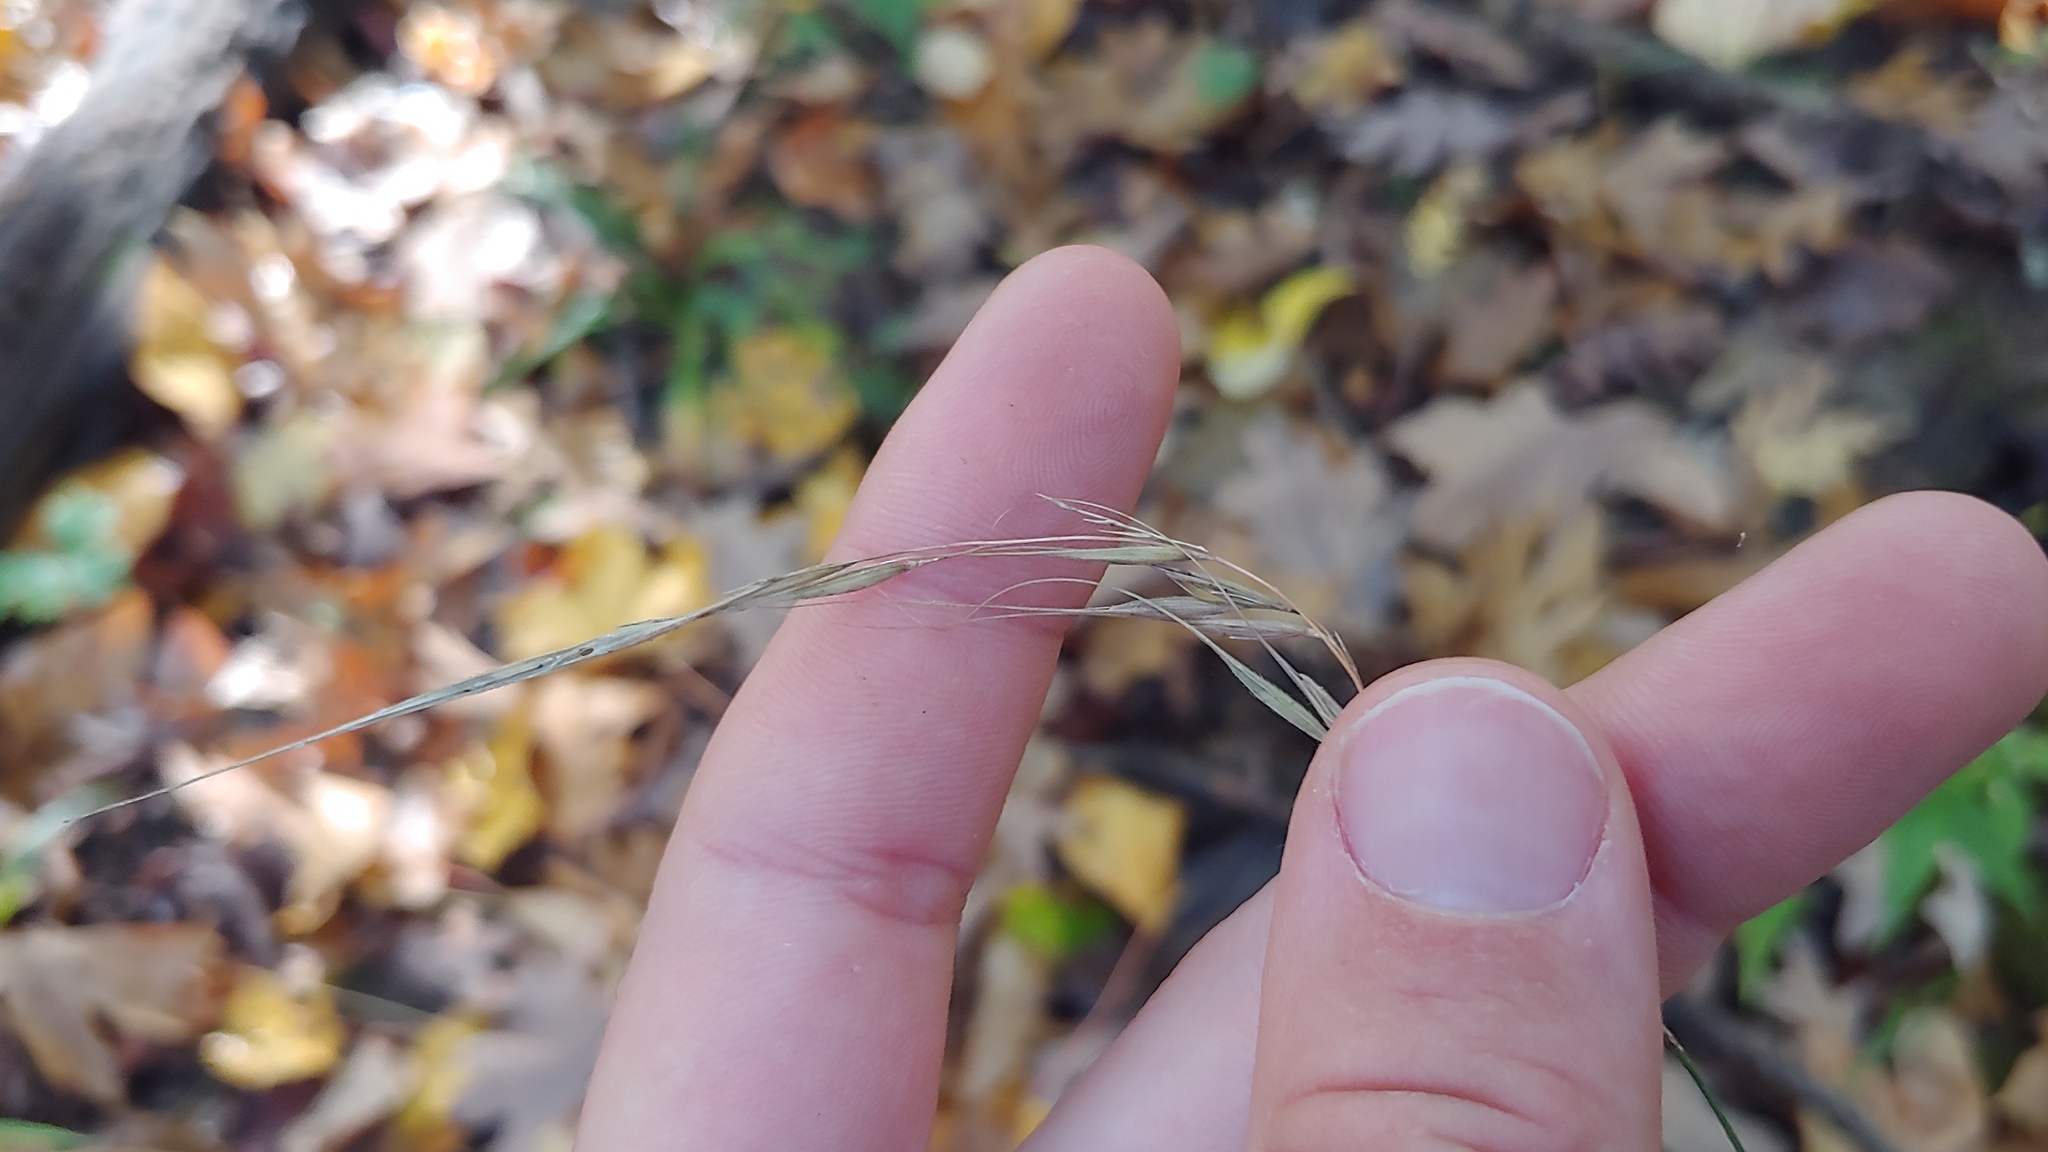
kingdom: Plantae
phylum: Tracheophyta
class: Liliopsida
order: Poales
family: Poaceae
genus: Brachyelytrum
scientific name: Brachyelytrum erectum
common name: Bearded shorthusk
